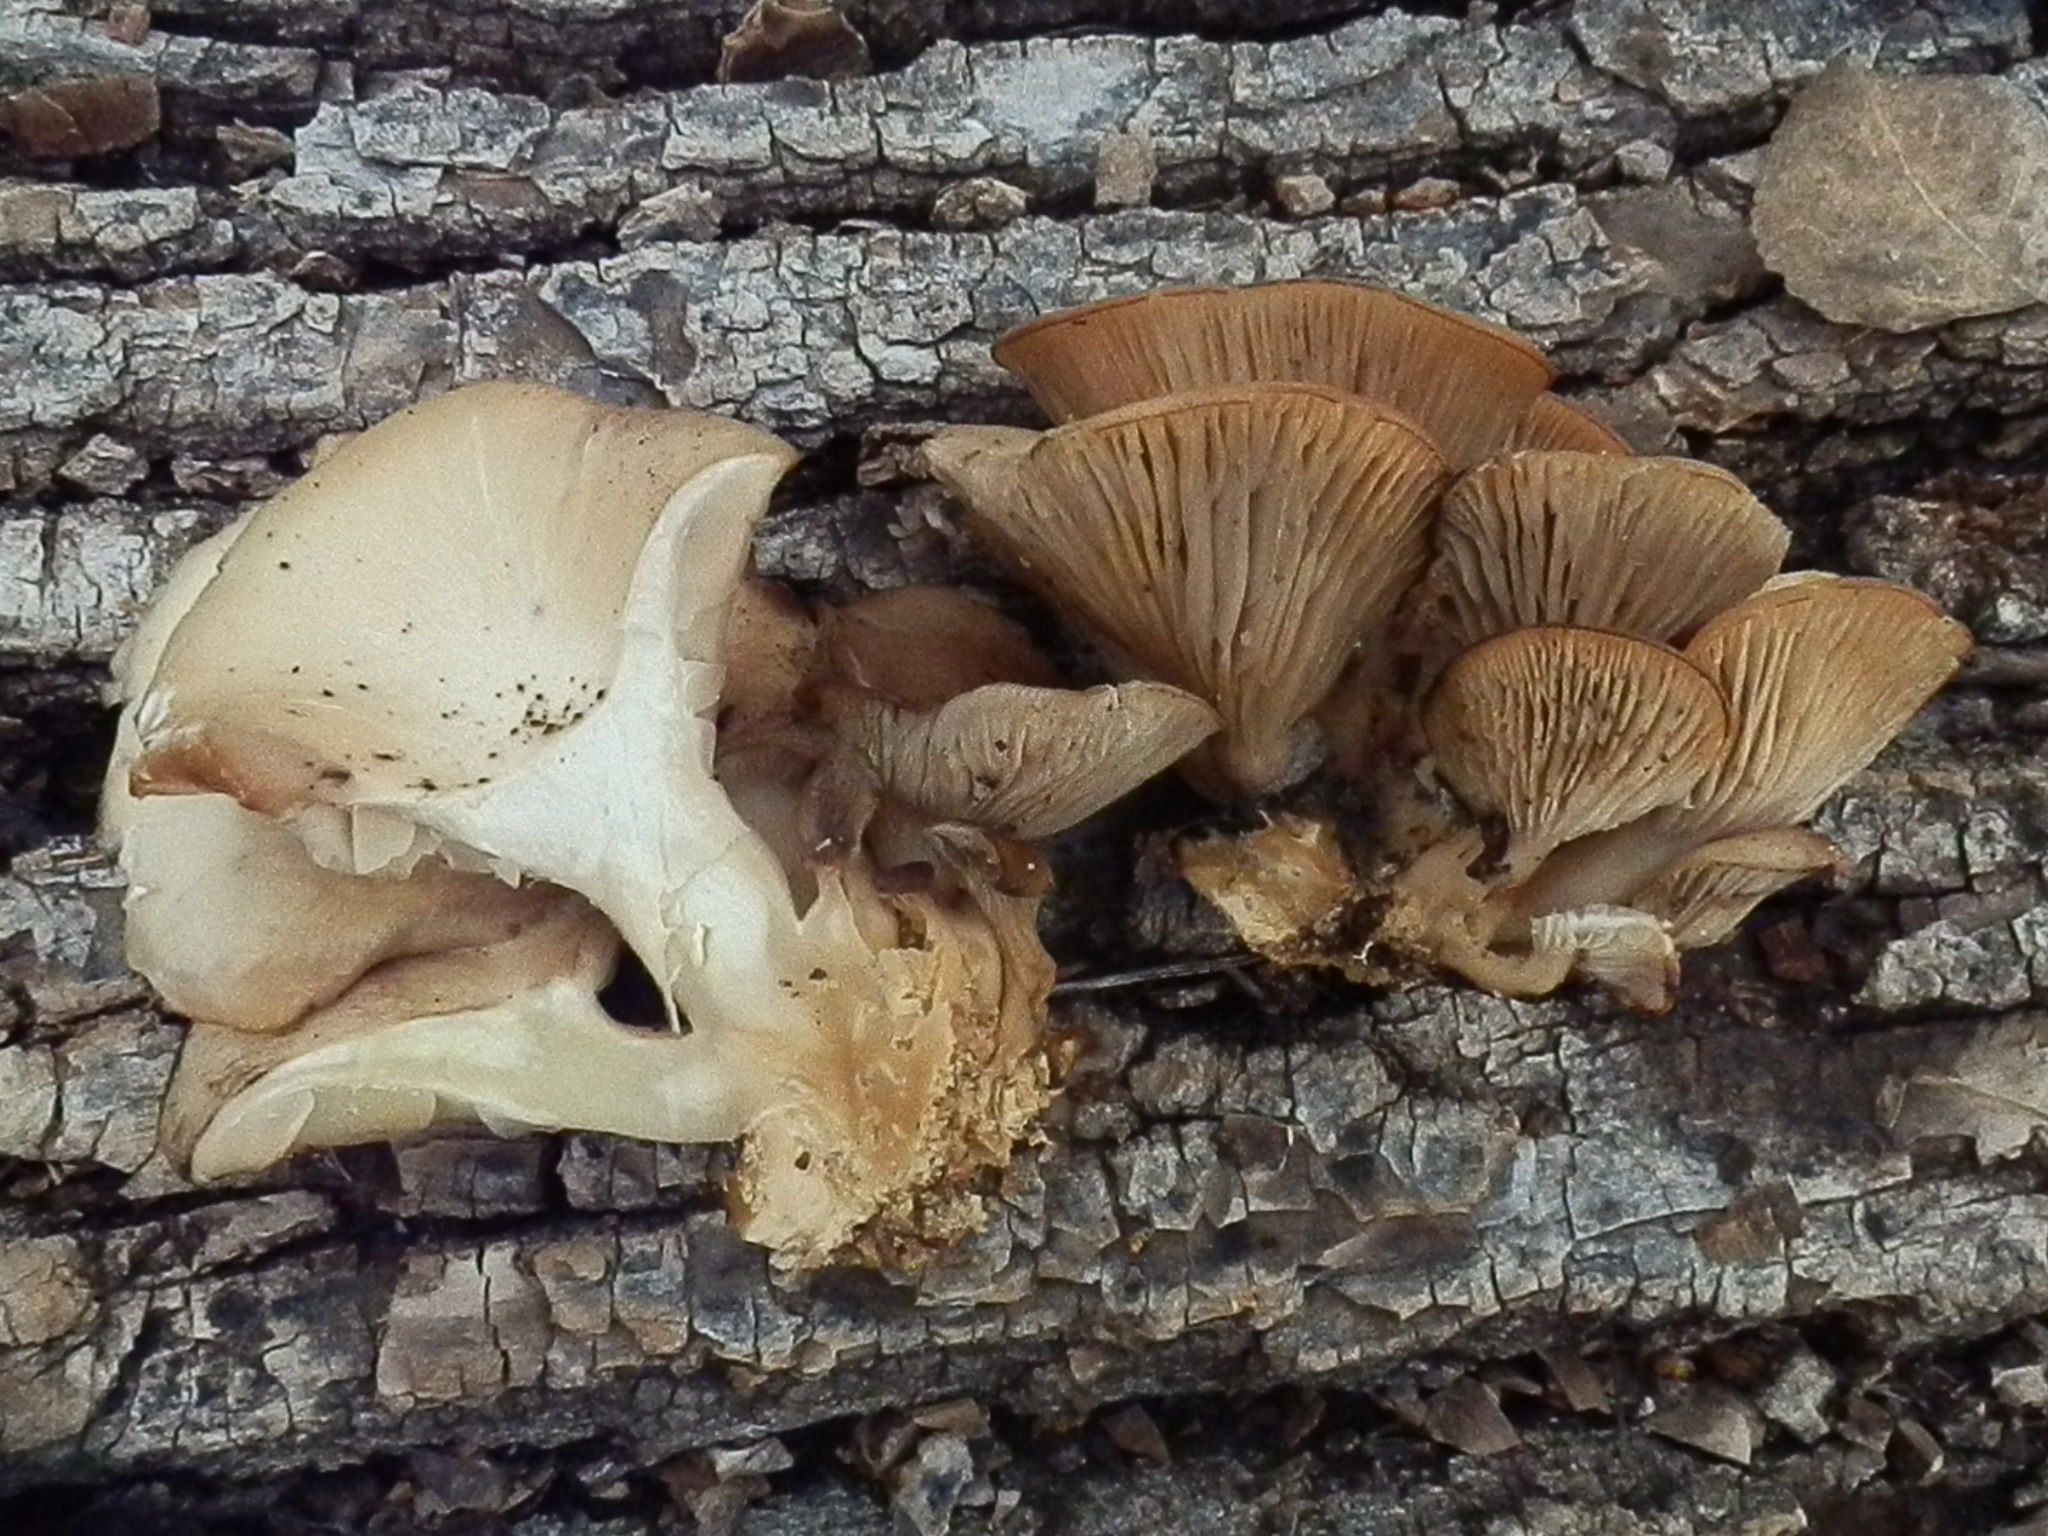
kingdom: Fungi
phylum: Basidiomycota
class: Agaricomycetes
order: Agaricales
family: Pleurotaceae
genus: Pleurotus
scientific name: Pleurotus ostreatus
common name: Oyster mushroom
